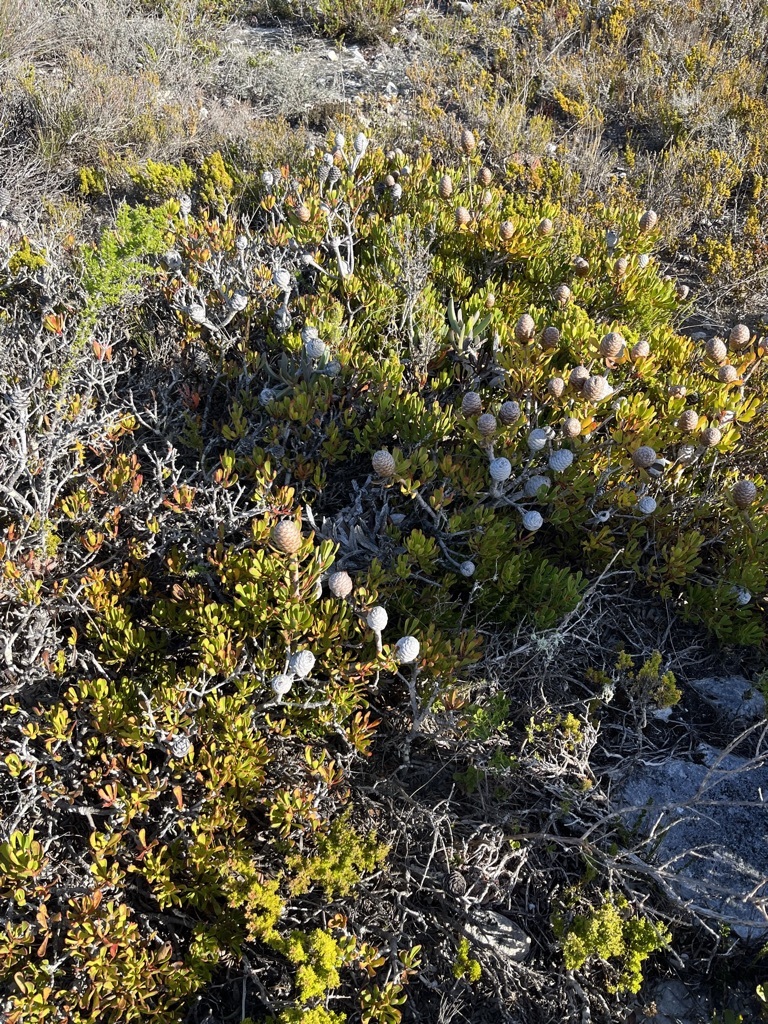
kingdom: Plantae
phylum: Tracheophyta
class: Magnoliopsida
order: Proteales
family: Proteaceae
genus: Leucadendron
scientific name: Leucadendron muirii
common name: Silver-ball conebush
